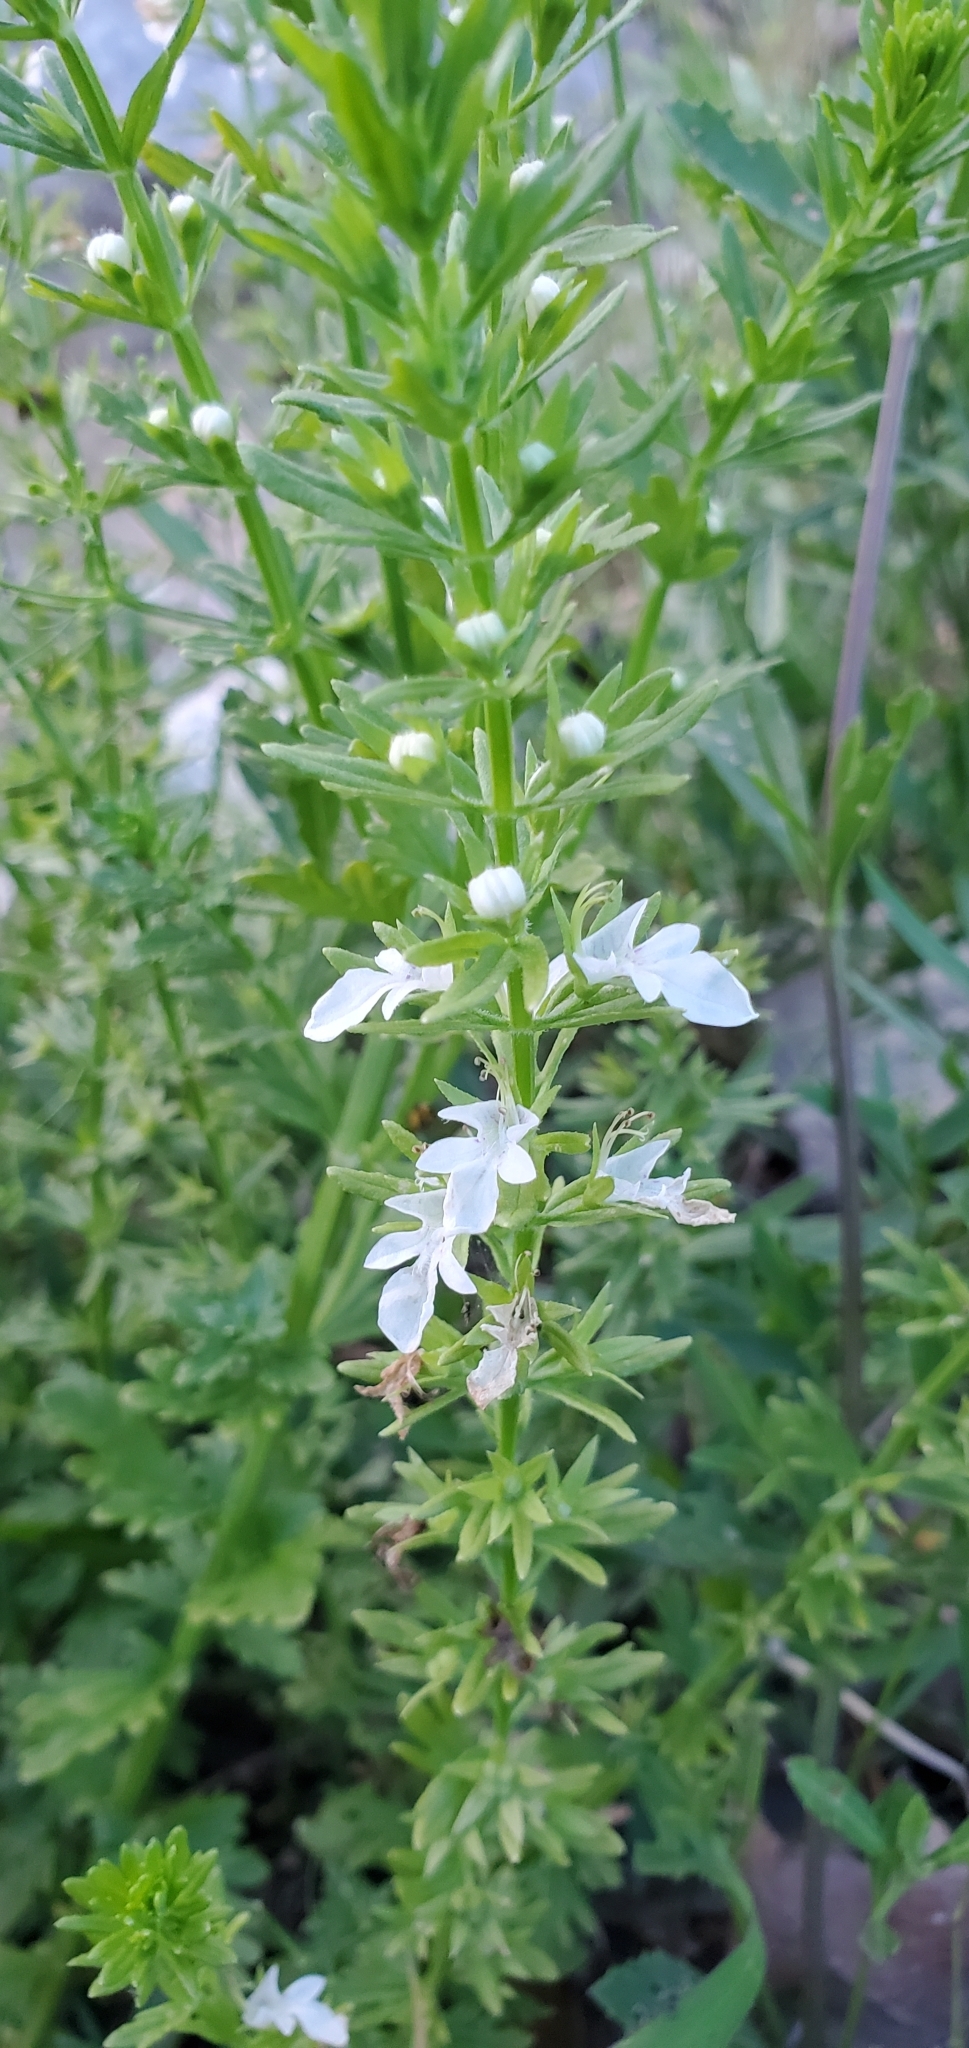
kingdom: Plantae
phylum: Tracheophyta
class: Magnoliopsida
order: Lamiales
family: Lamiaceae
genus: Teucrium
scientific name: Teucrium cubense
